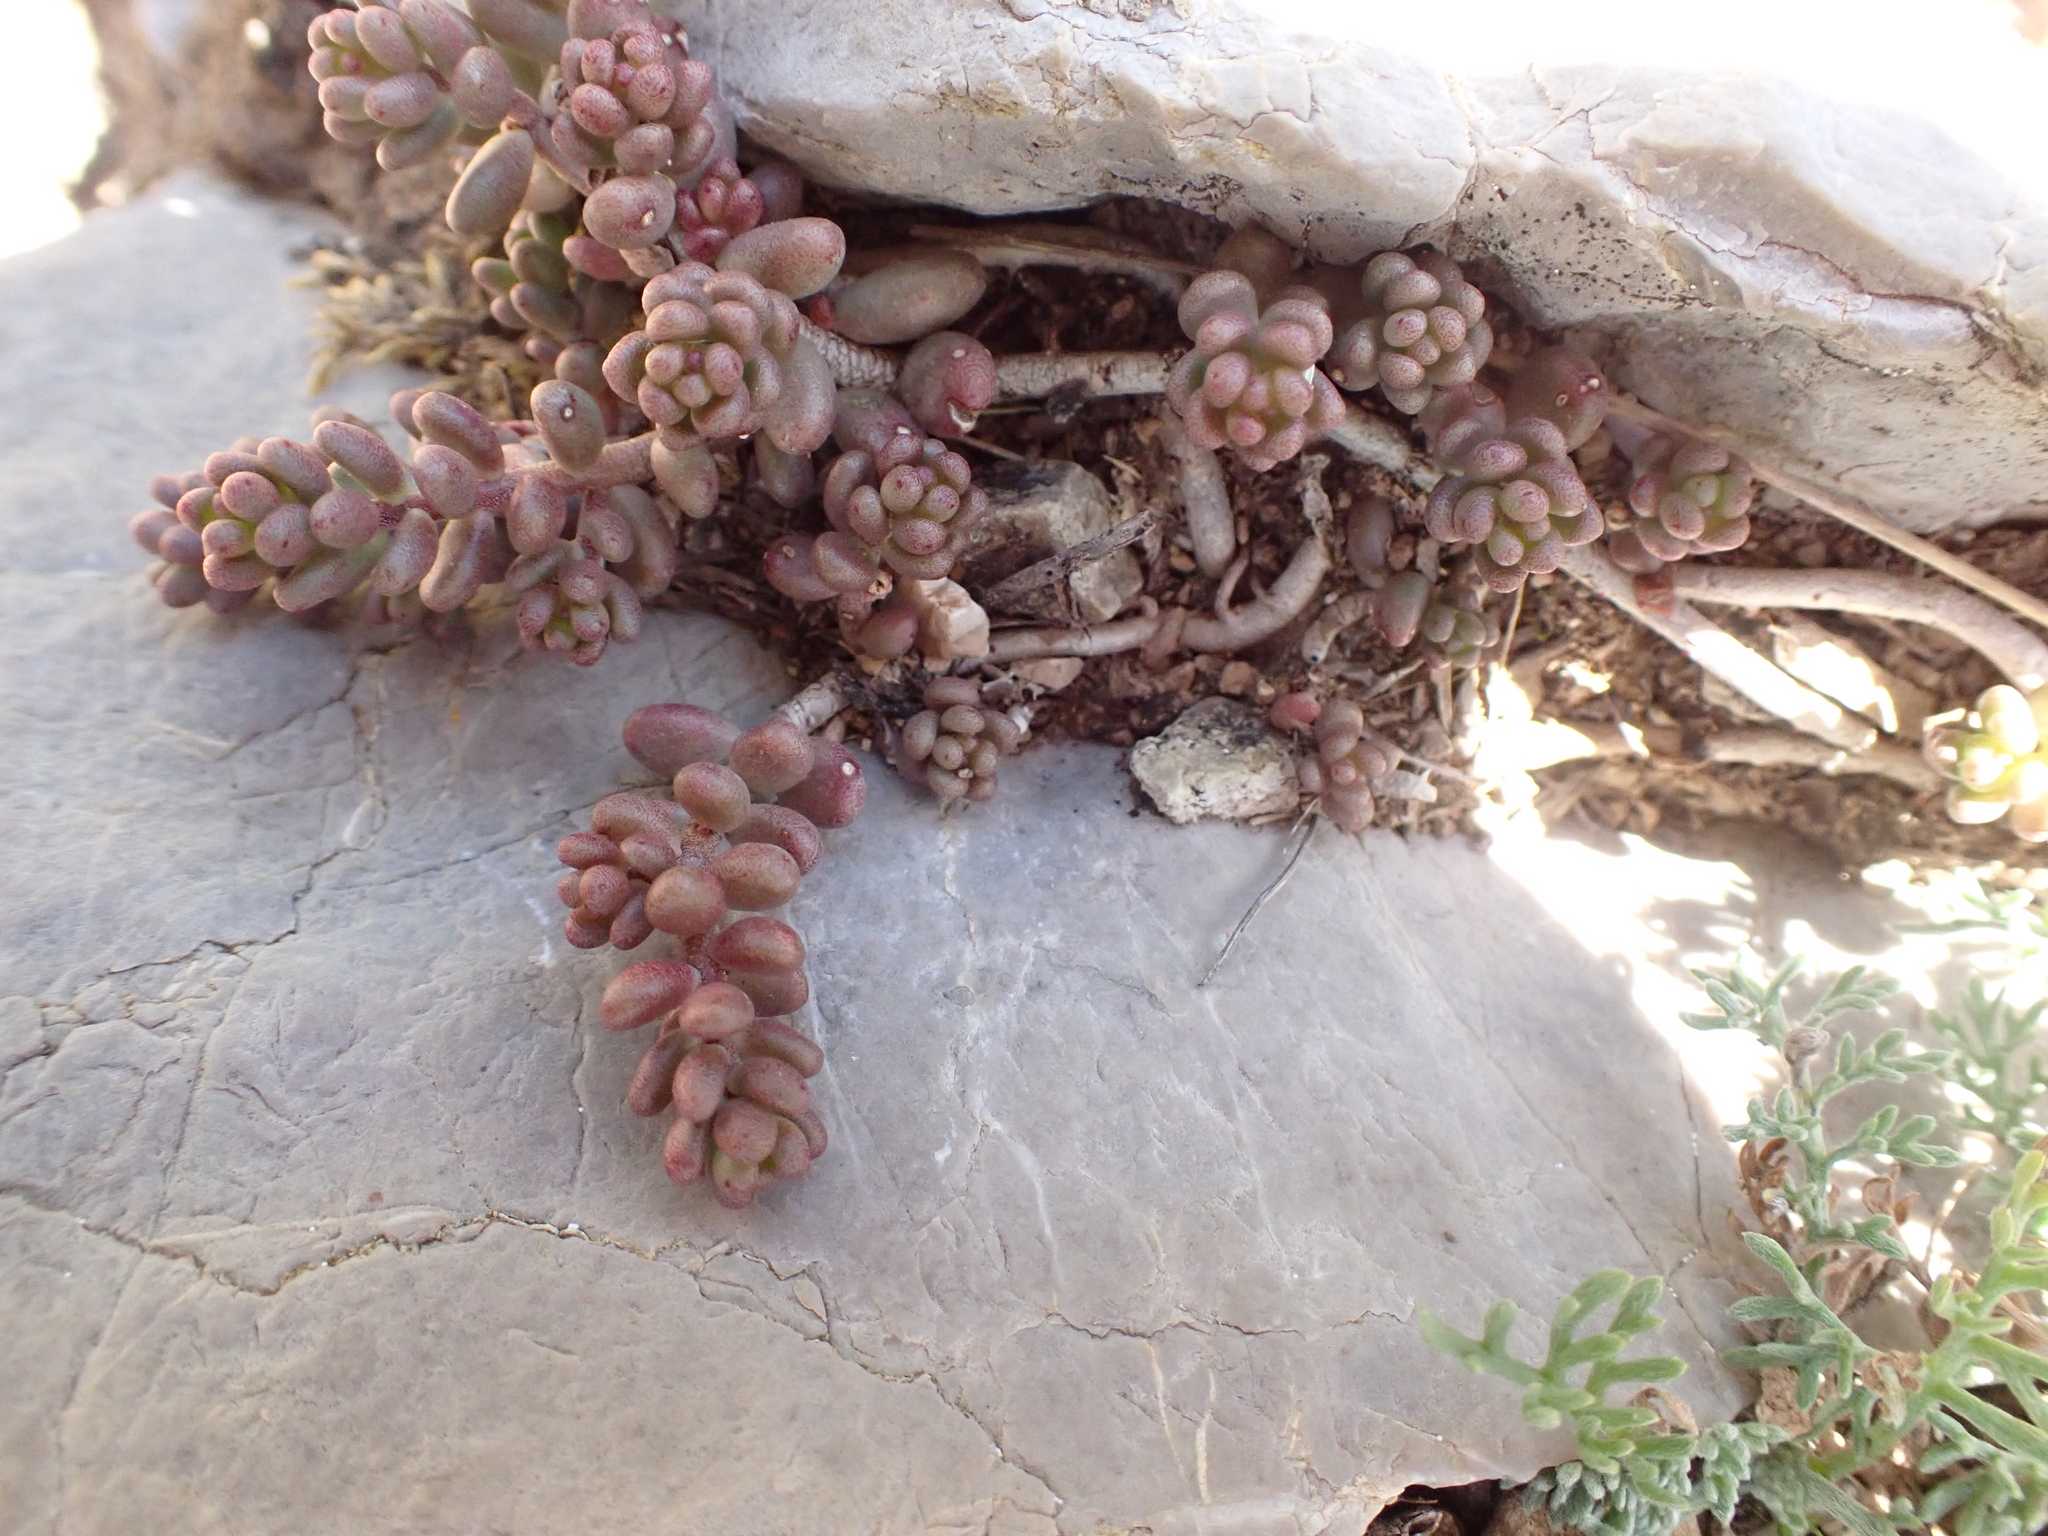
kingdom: Plantae
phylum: Tracheophyta
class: Magnoliopsida
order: Saxifragales
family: Crassulaceae
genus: Sedum
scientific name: Sedum album
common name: White stonecrop
